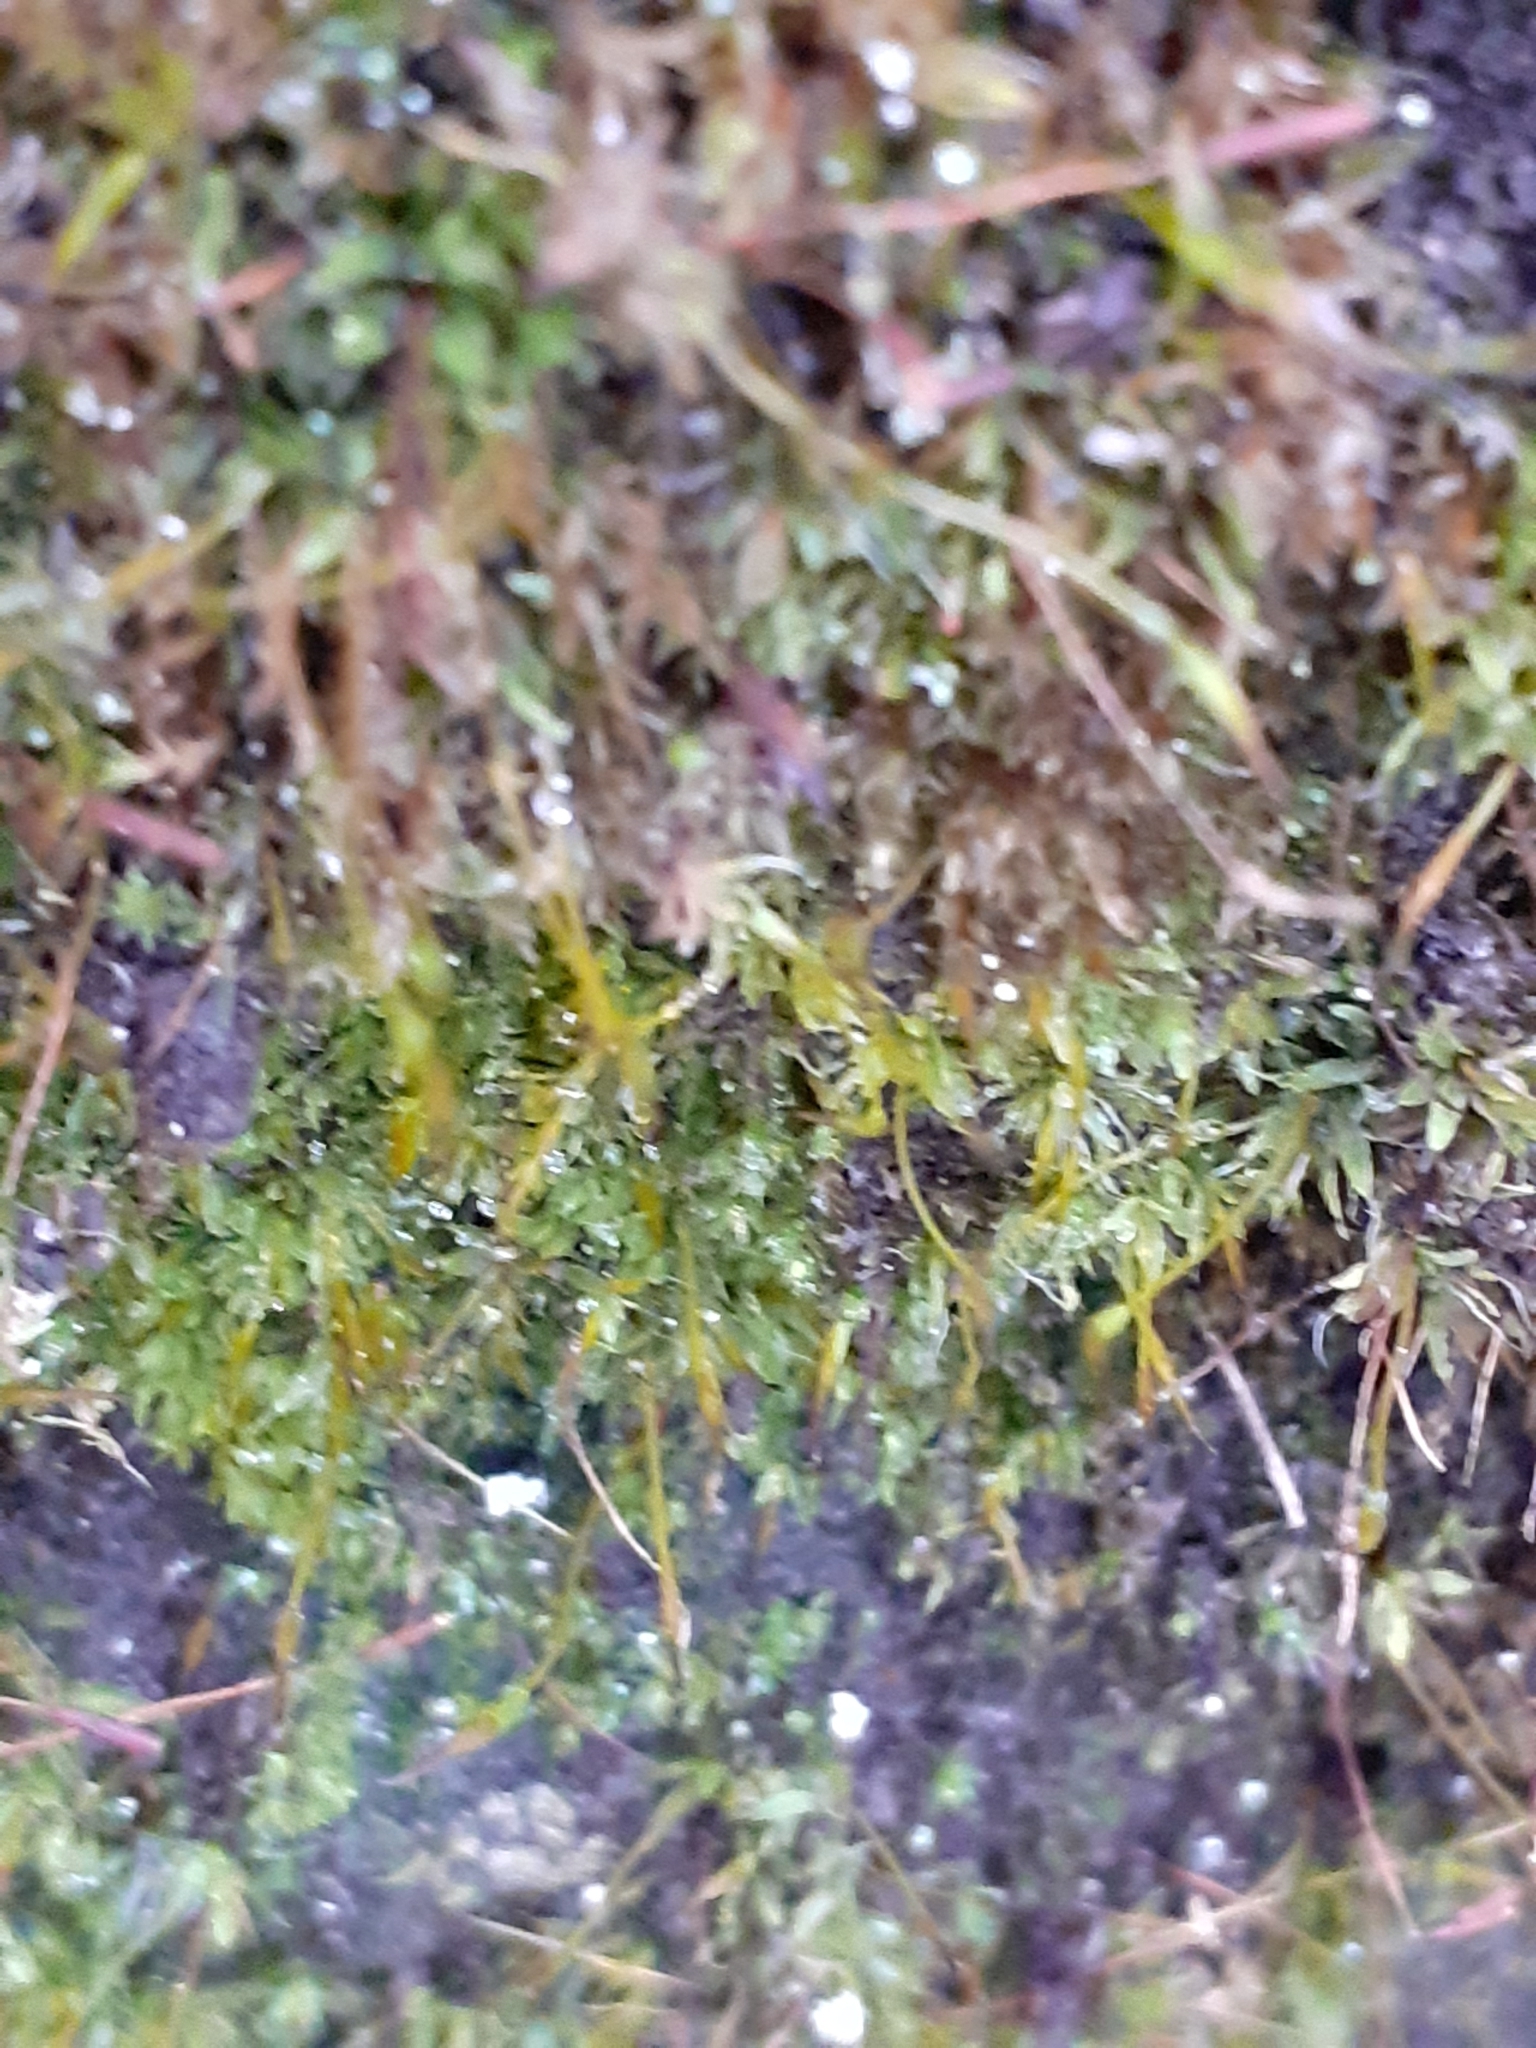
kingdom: Plantae
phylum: Bryophyta
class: Bryopsida
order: Pottiales
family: Pottiaceae
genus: Tortula
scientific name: Tortula muralis
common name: Wall screw-moss
